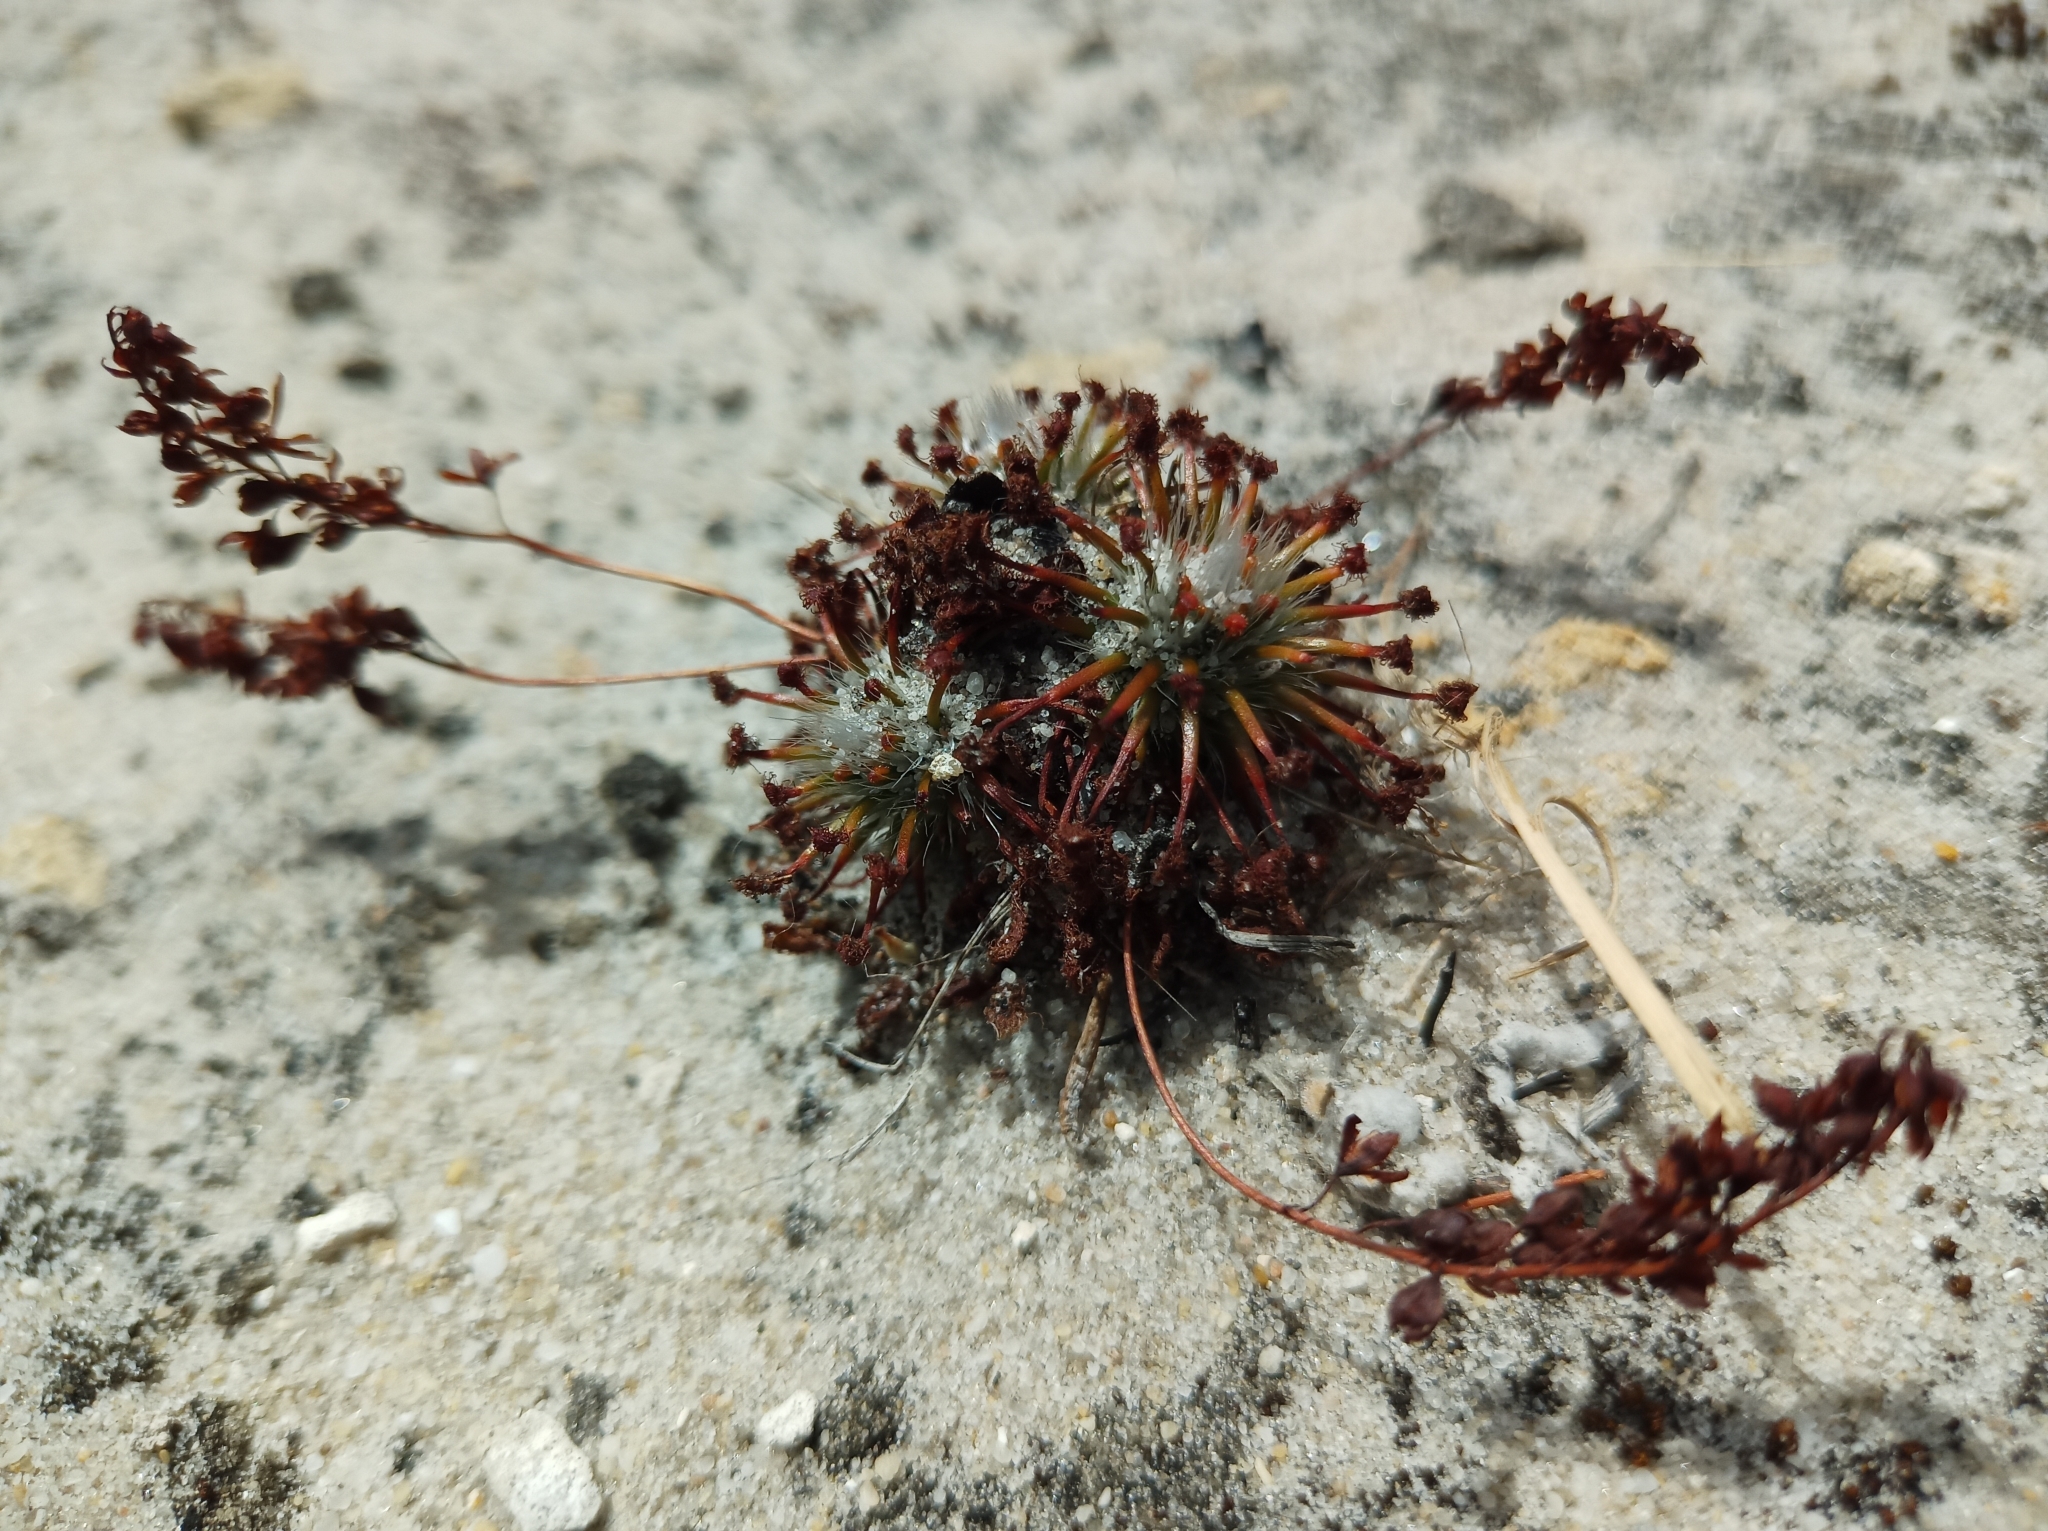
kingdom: Plantae
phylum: Tracheophyta
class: Magnoliopsida
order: Caryophyllales
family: Droseraceae
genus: Drosera
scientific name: Drosera paleacea
